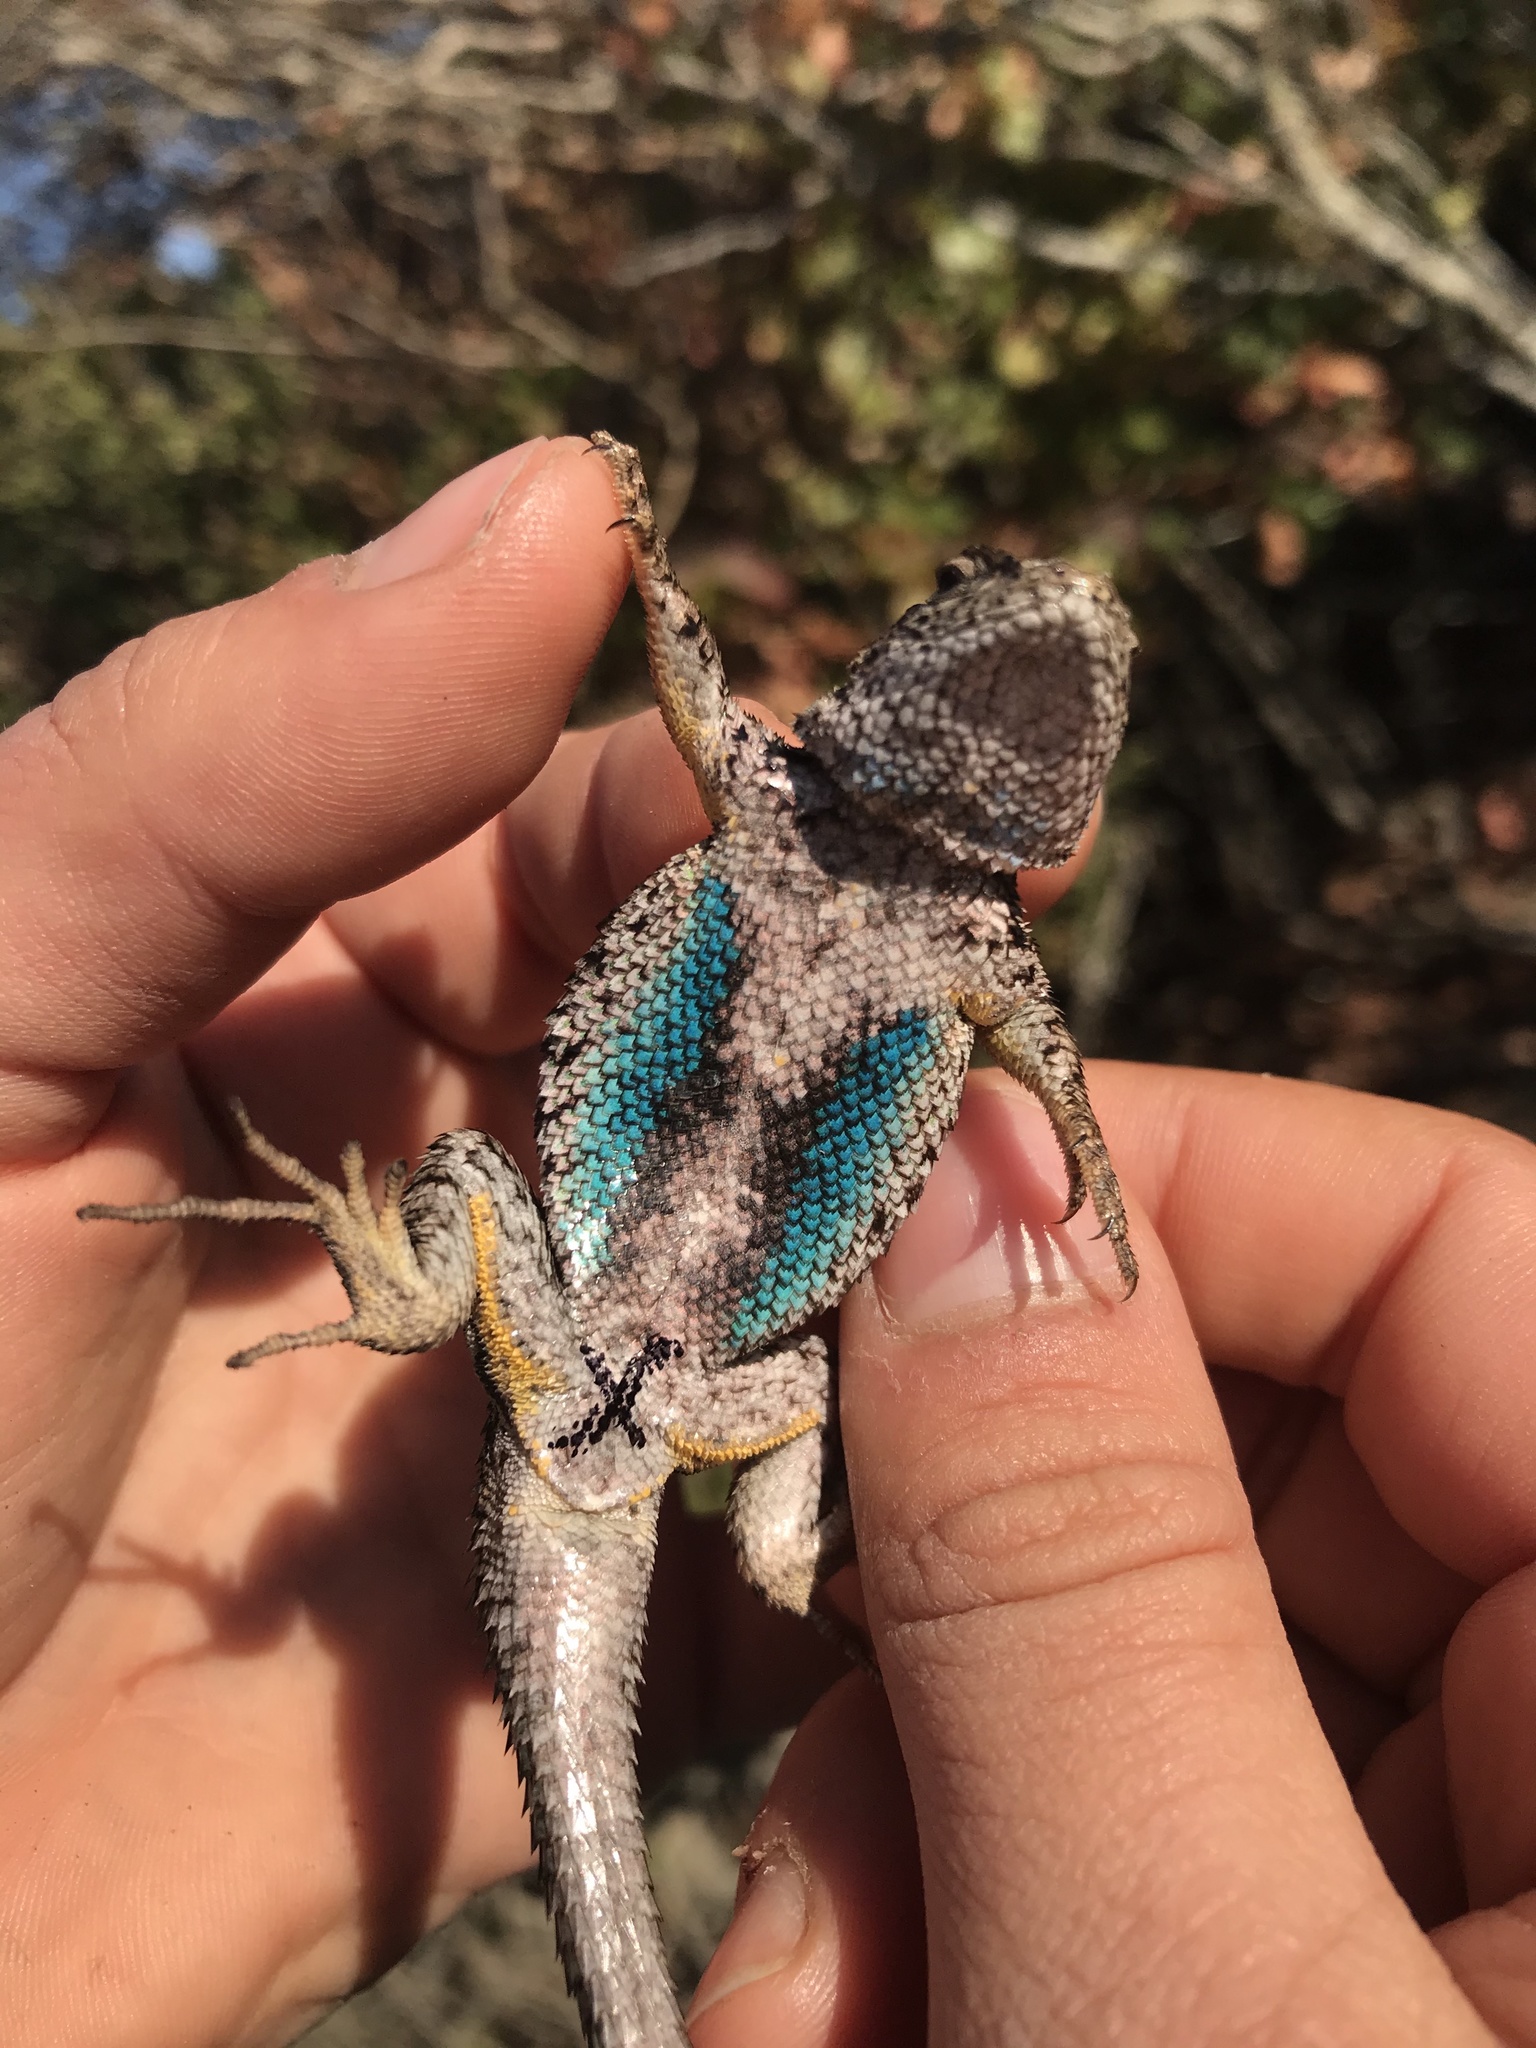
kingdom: Animalia
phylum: Chordata
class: Squamata
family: Phrynosomatidae
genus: Sceloporus
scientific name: Sceloporus occidentalis
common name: Western fence lizard
